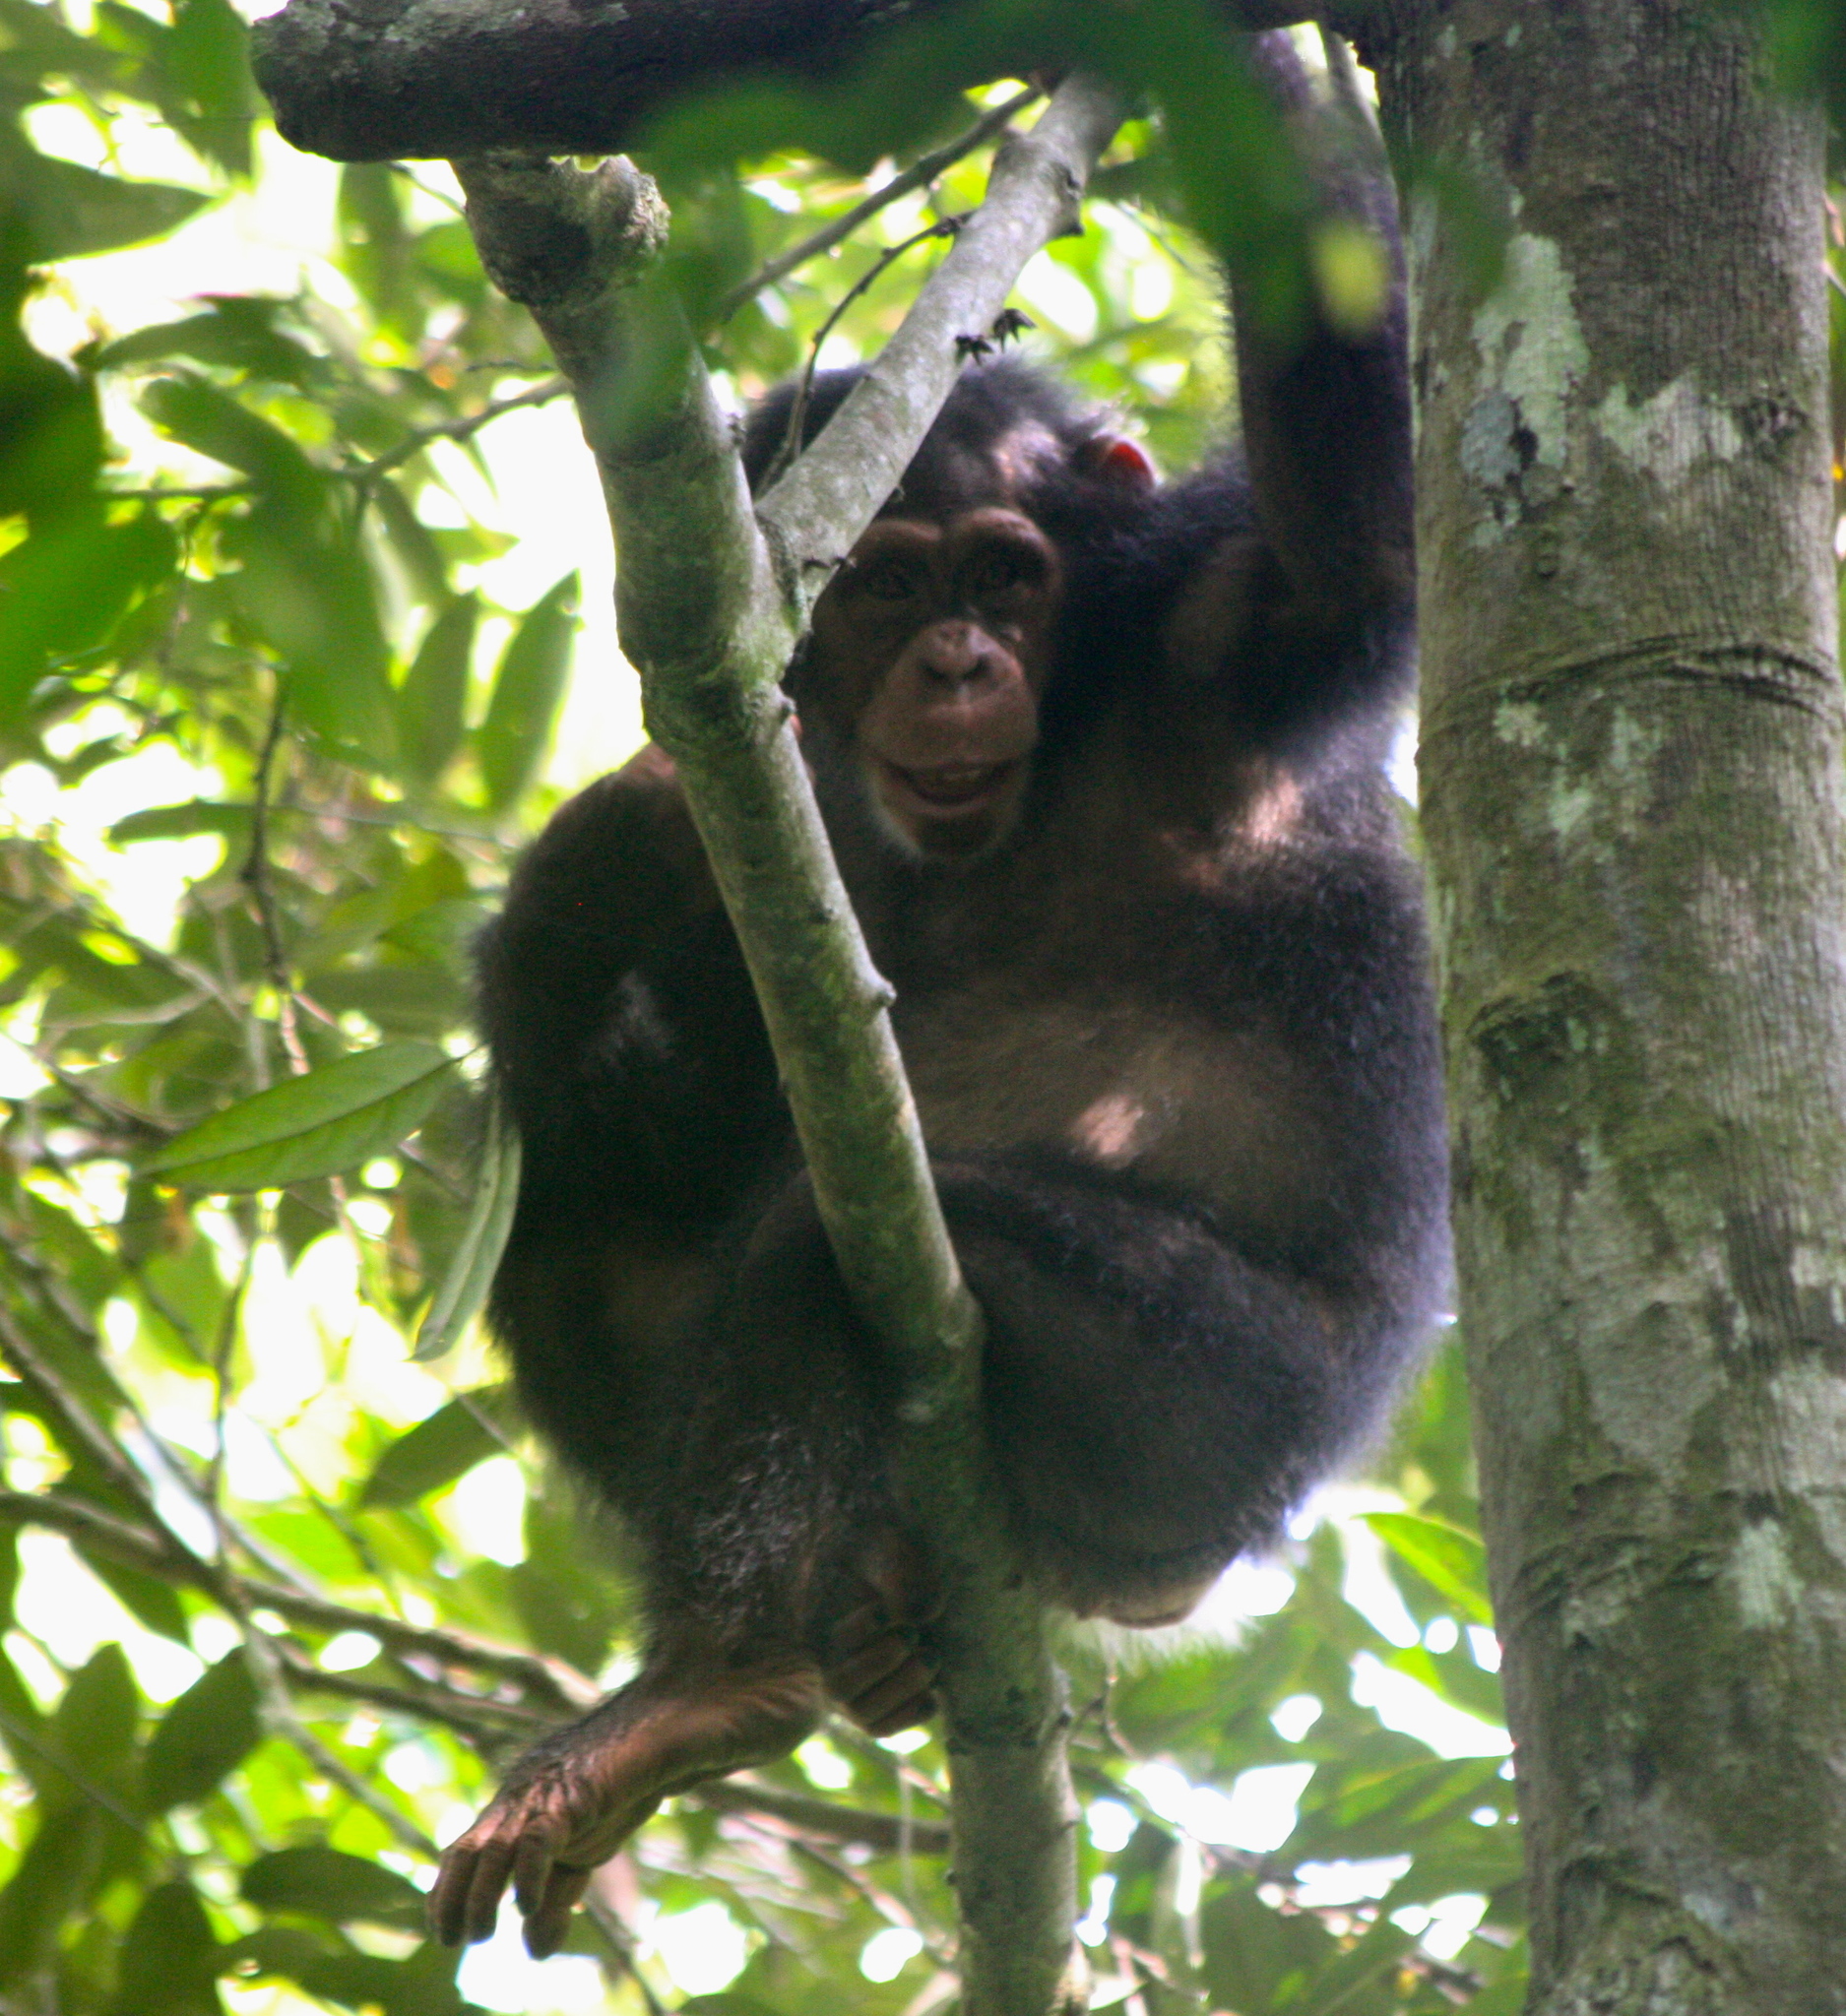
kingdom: Animalia
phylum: Chordata
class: Mammalia
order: Primates
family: Hominidae
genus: Pan
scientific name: Pan troglodytes
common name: Chimpanzee
